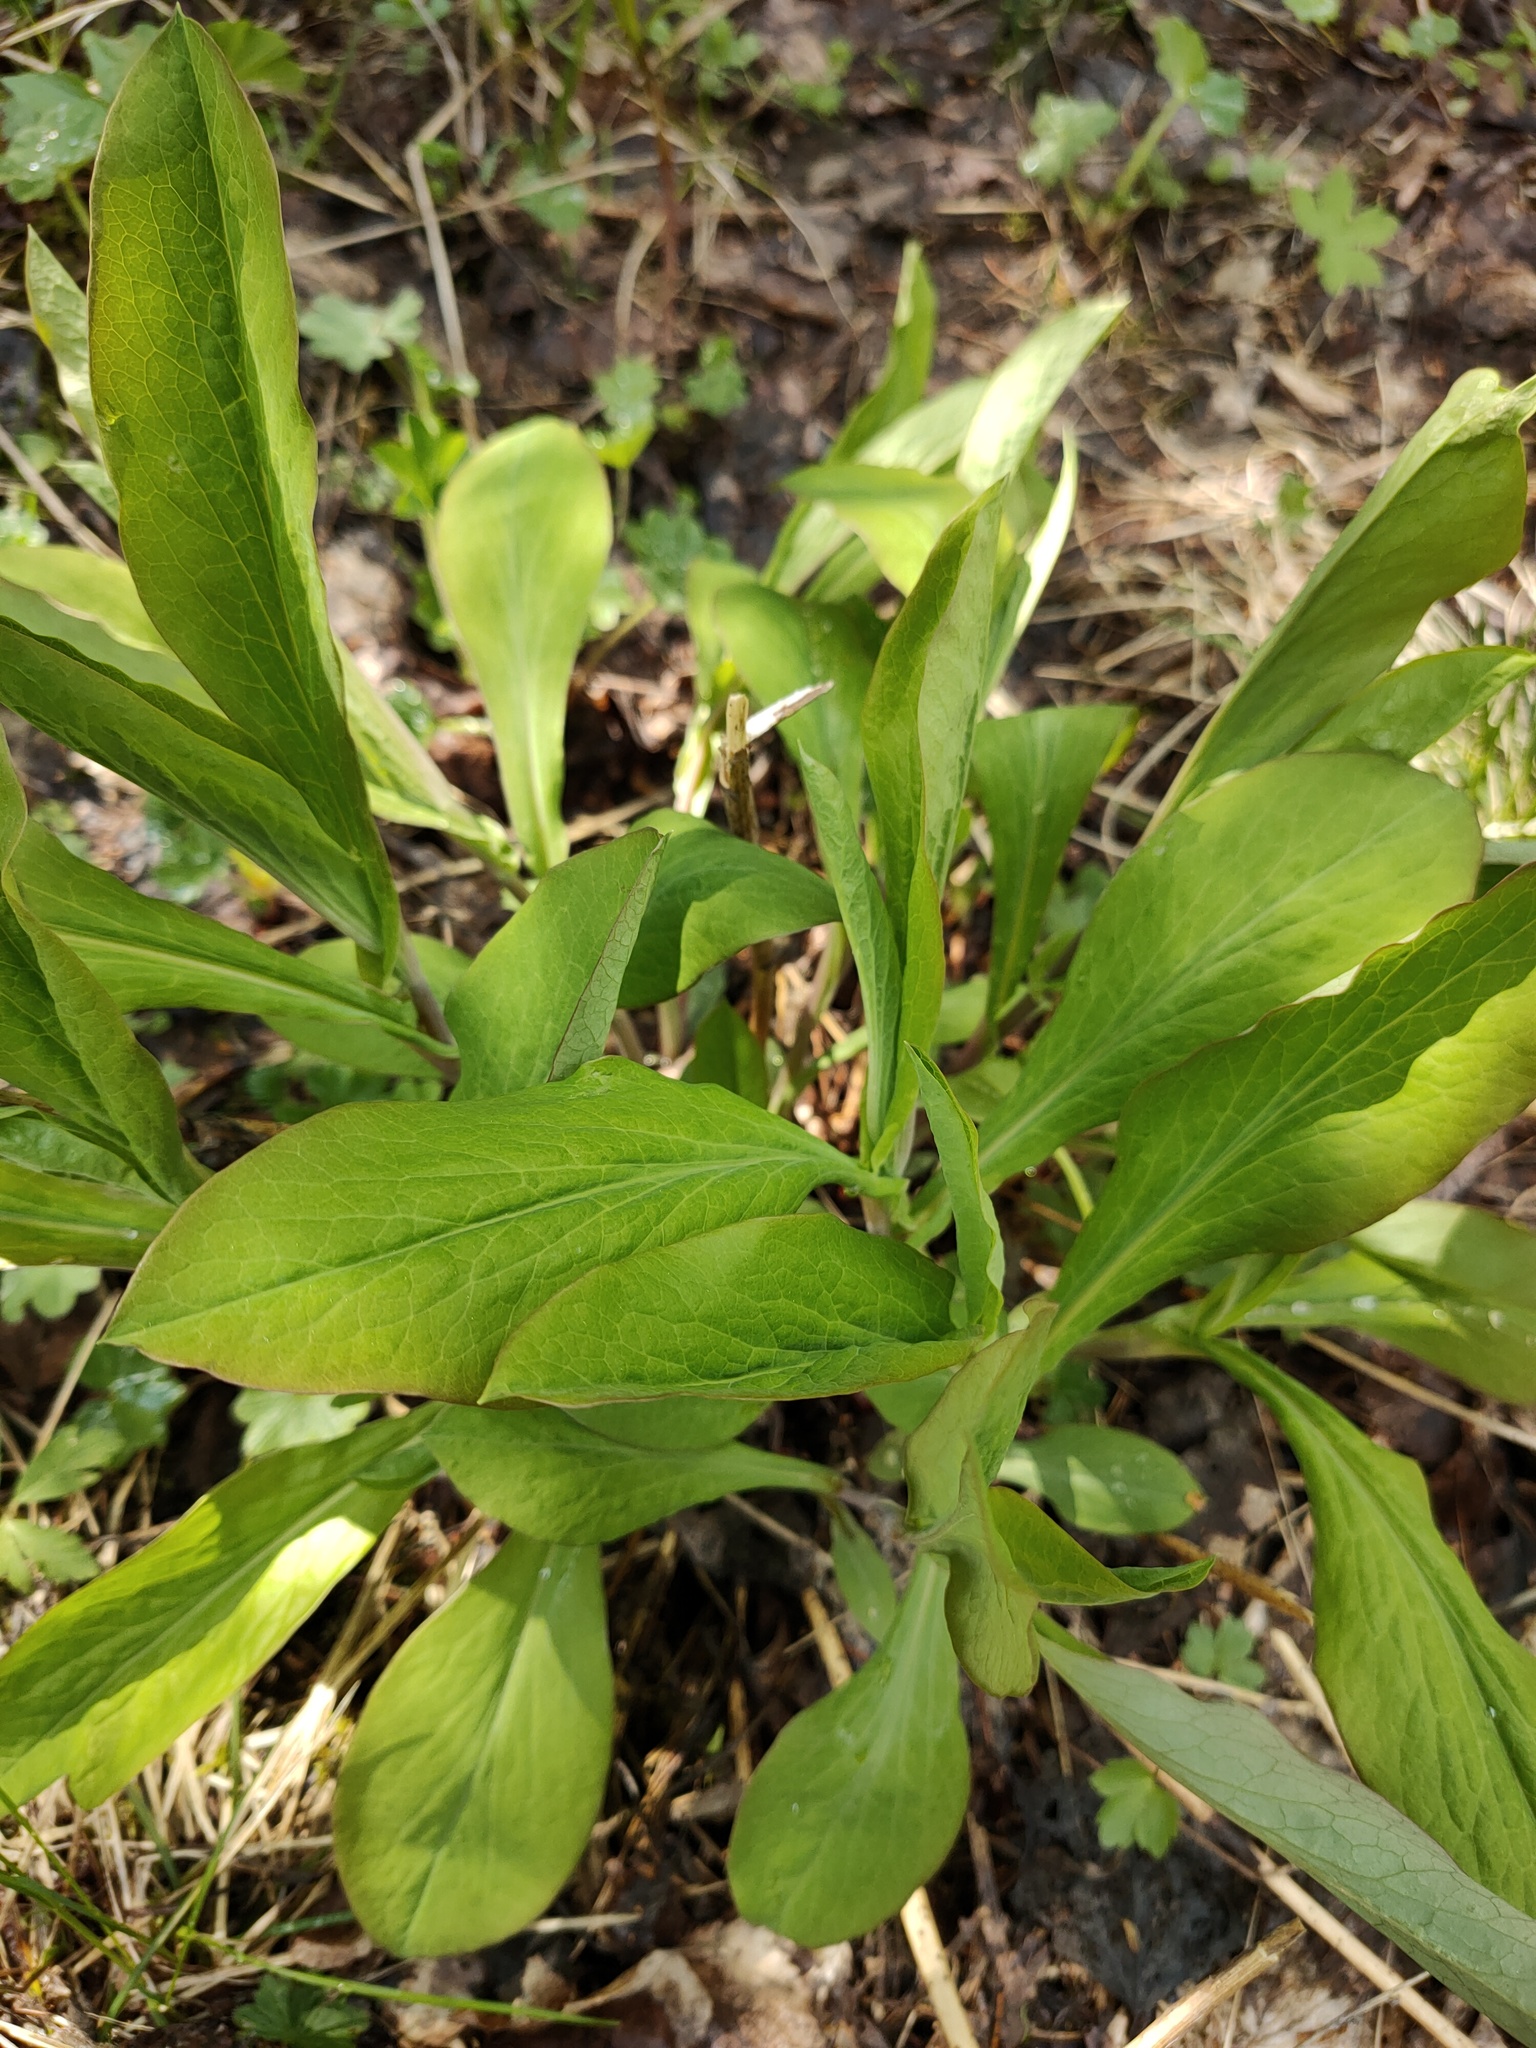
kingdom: Plantae
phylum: Tracheophyta
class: Magnoliopsida
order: Apiales
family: Apiaceae
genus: Bupleurum
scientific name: Bupleurum aureum
